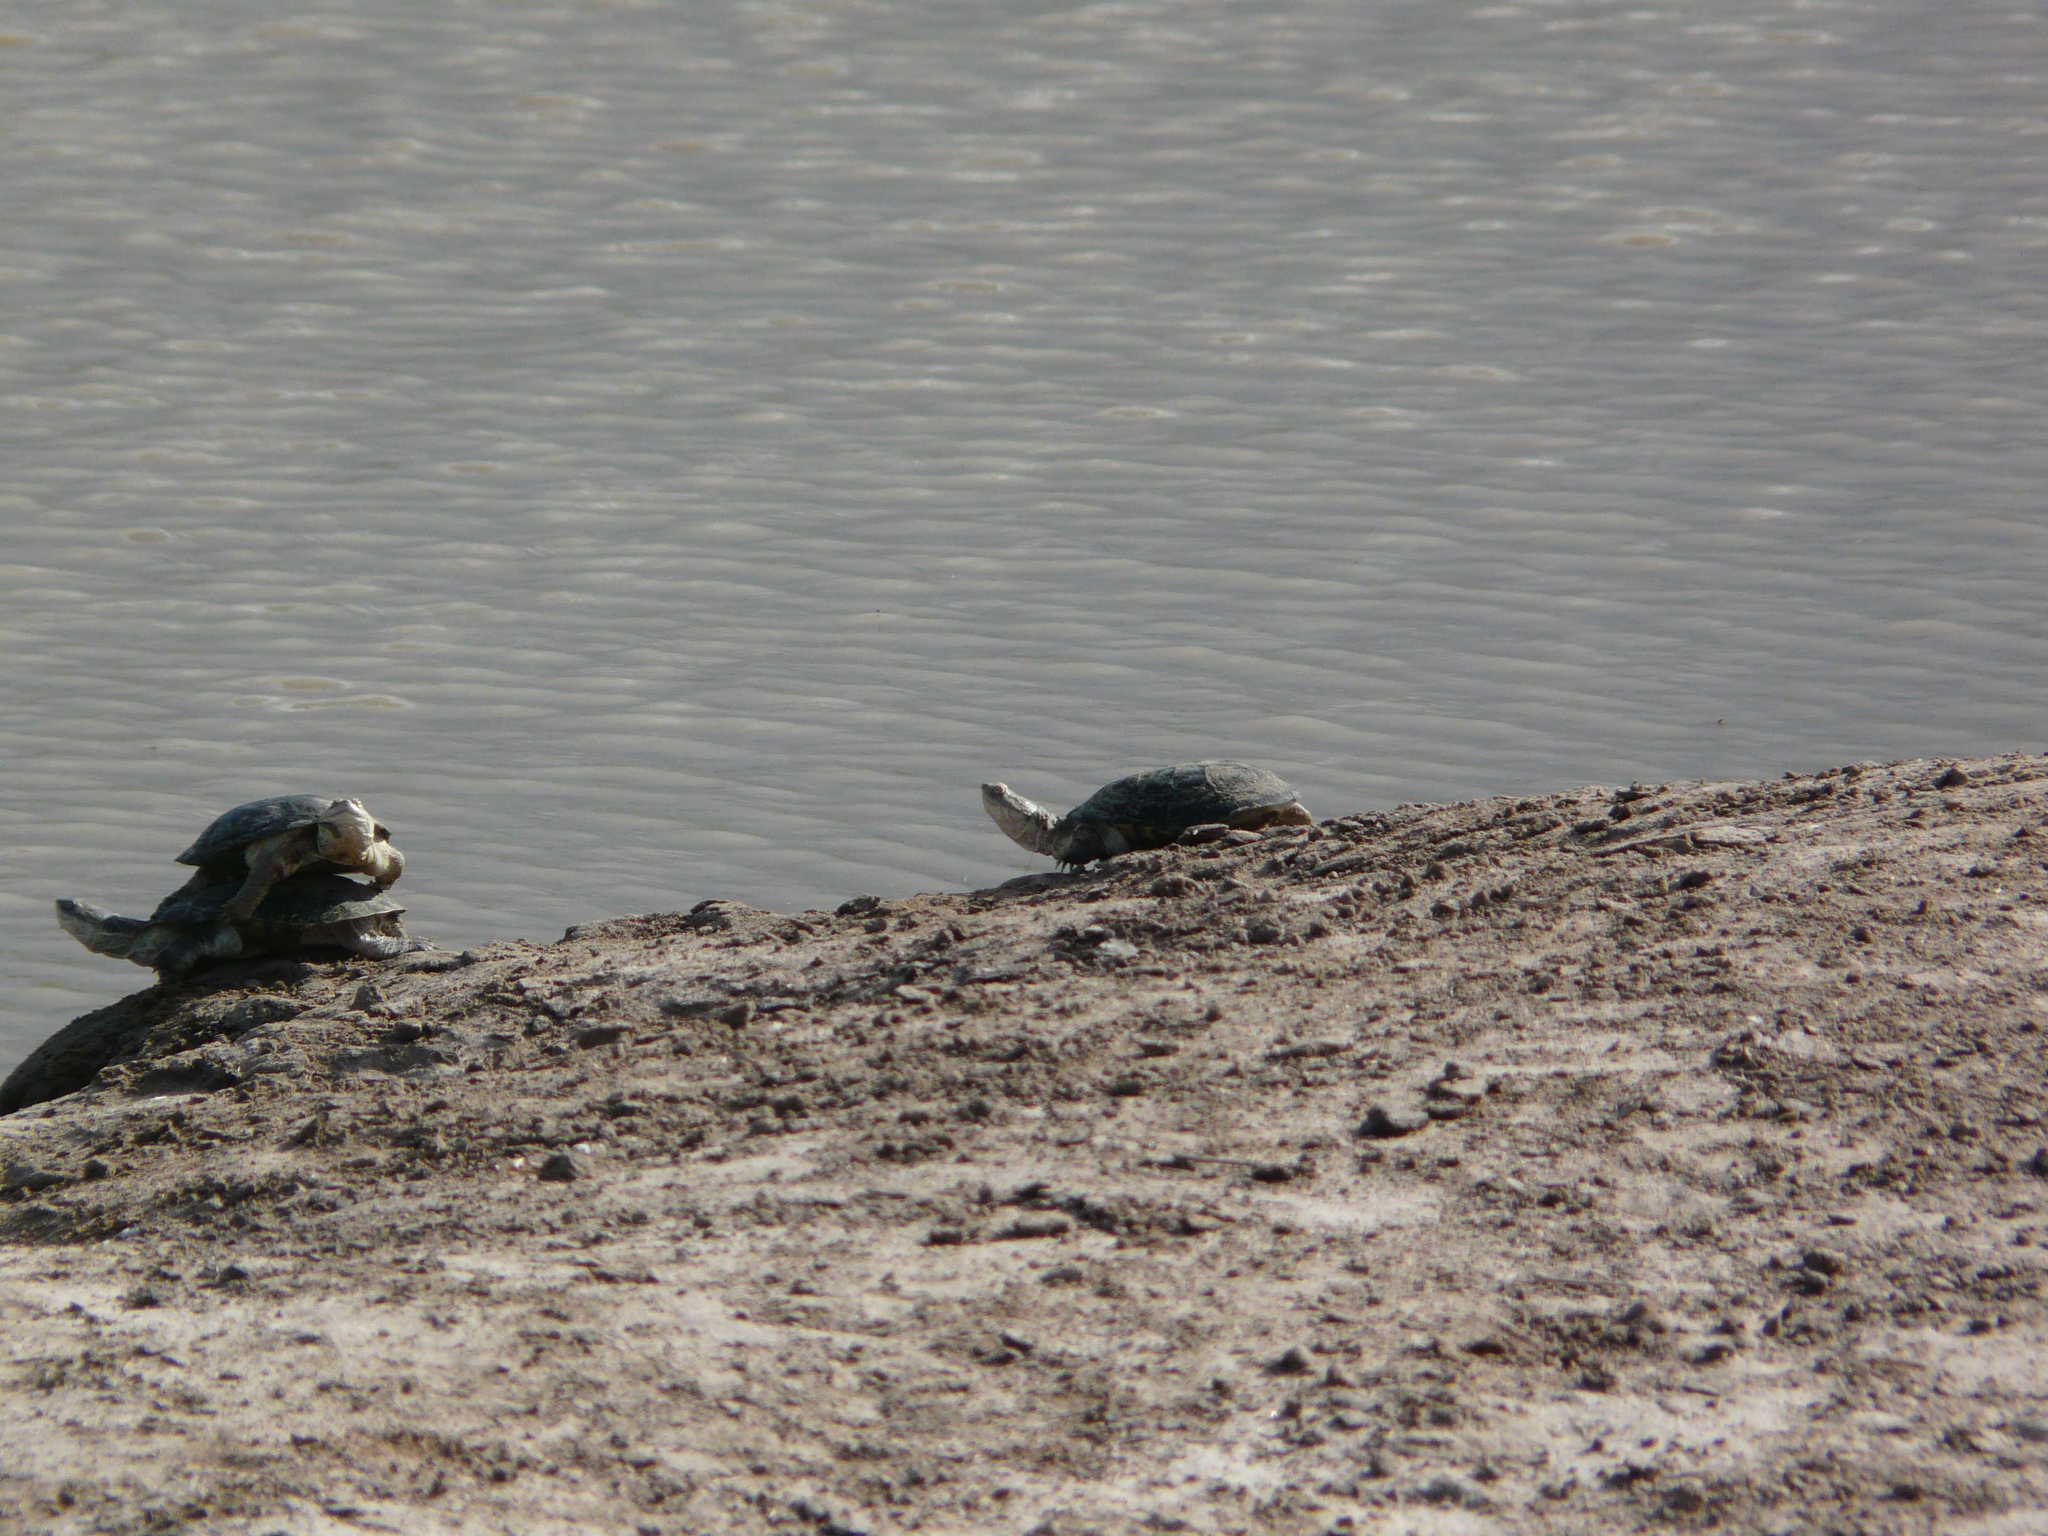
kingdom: Animalia
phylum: Chordata
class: Testudines
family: Pelomedusidae
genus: Pelomedusa
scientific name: Pelomedusa subrufa
